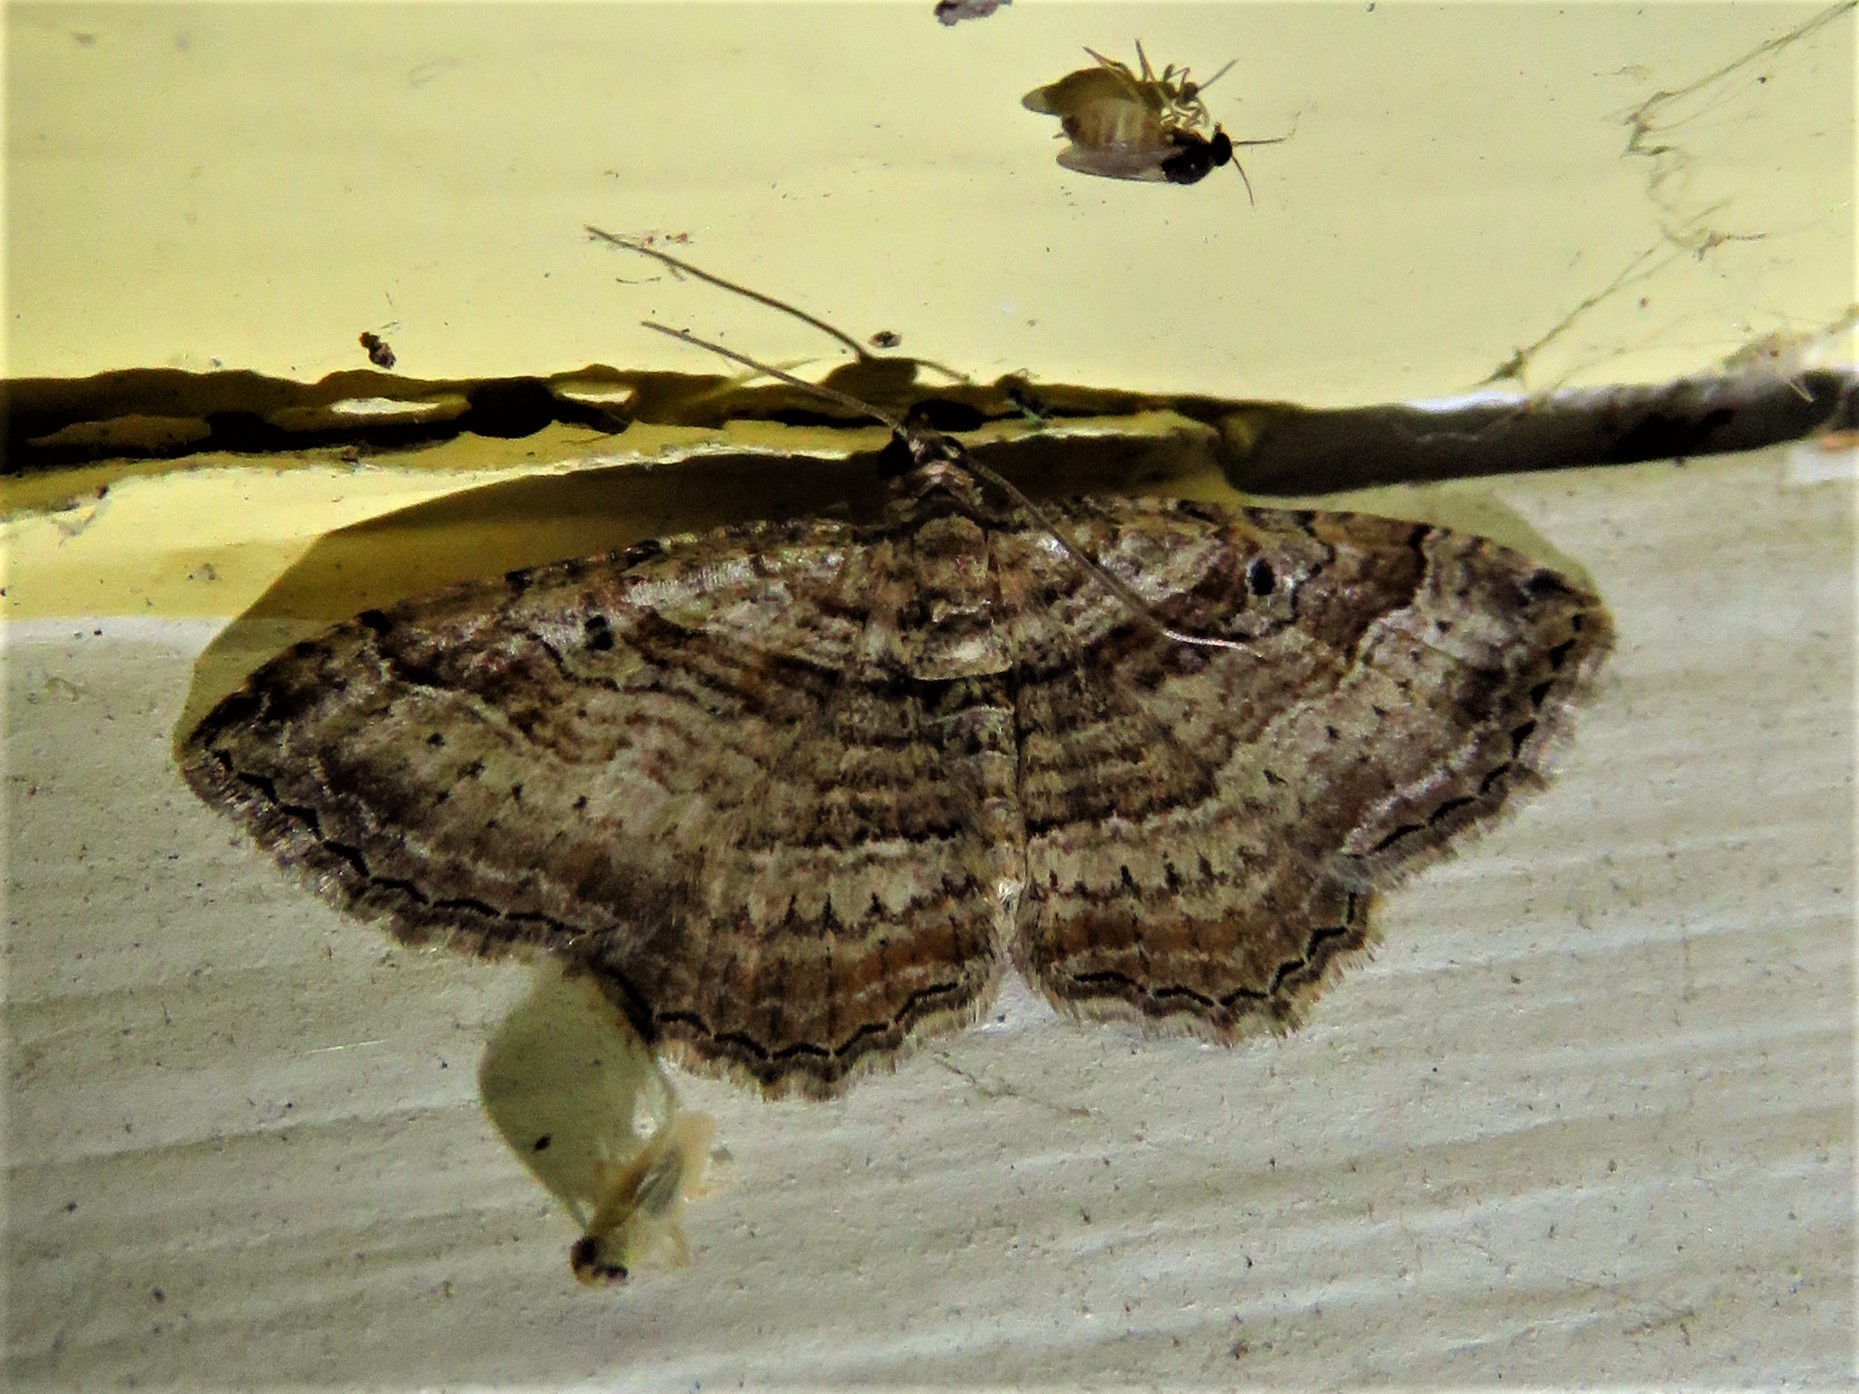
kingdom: Animalia
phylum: Arthropoda
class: Insecta
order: Lepidoptera
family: Geometridae
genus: Costaconvexa
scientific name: Costaconvexa centrostrigaria
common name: Bent-line carpet
